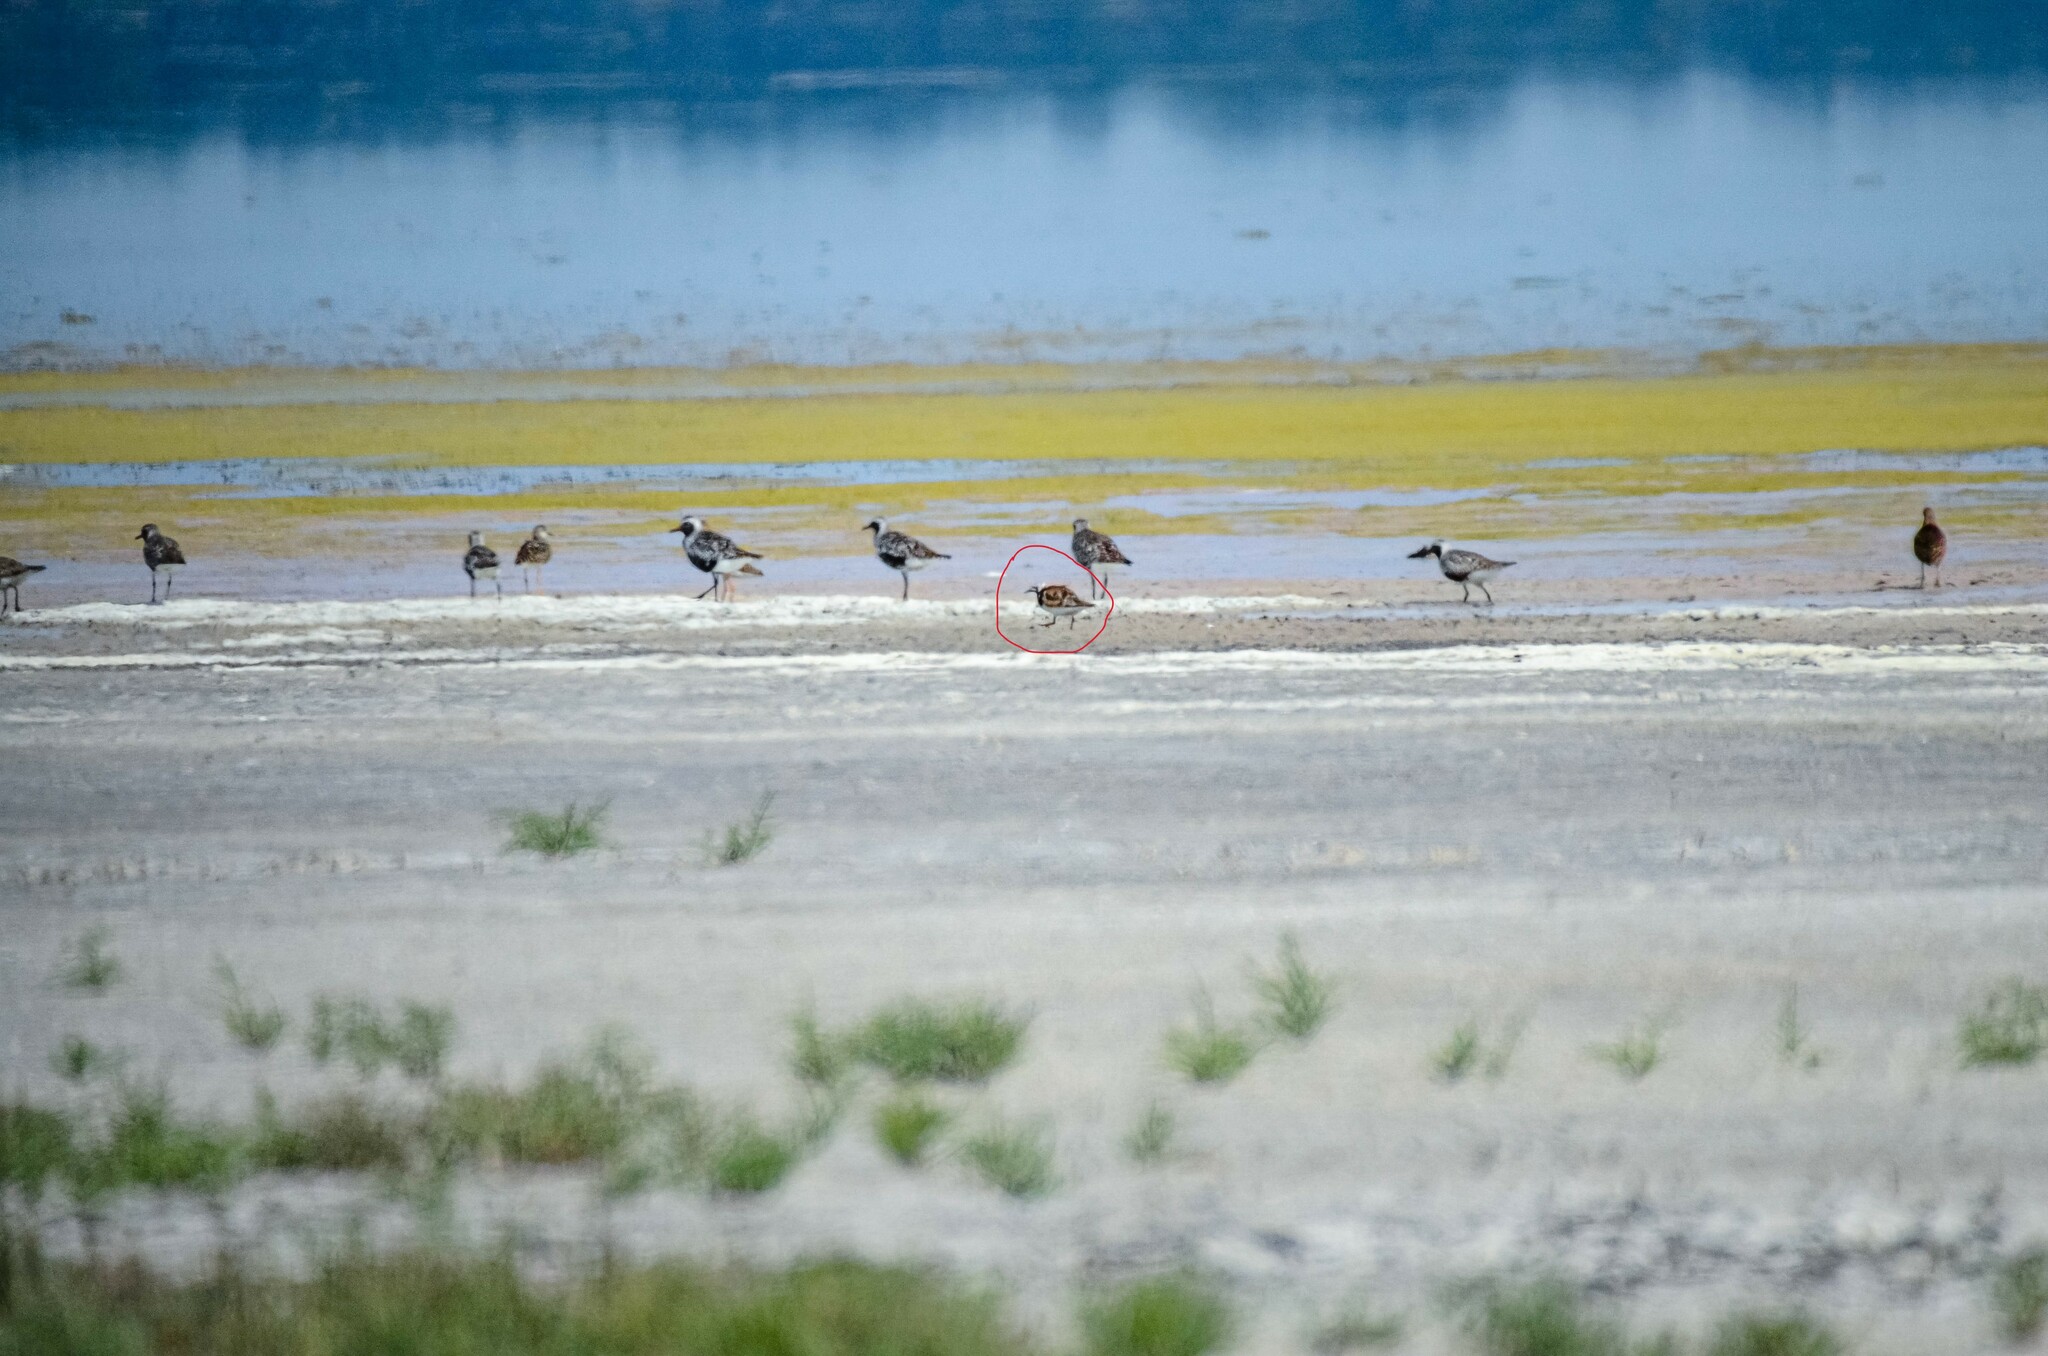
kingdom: Animalia
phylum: Chordata
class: Aves
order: Charadriiformes
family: Scolopacidae
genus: Arenaria
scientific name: Arenaria interpres
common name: Ruddy turnstone
